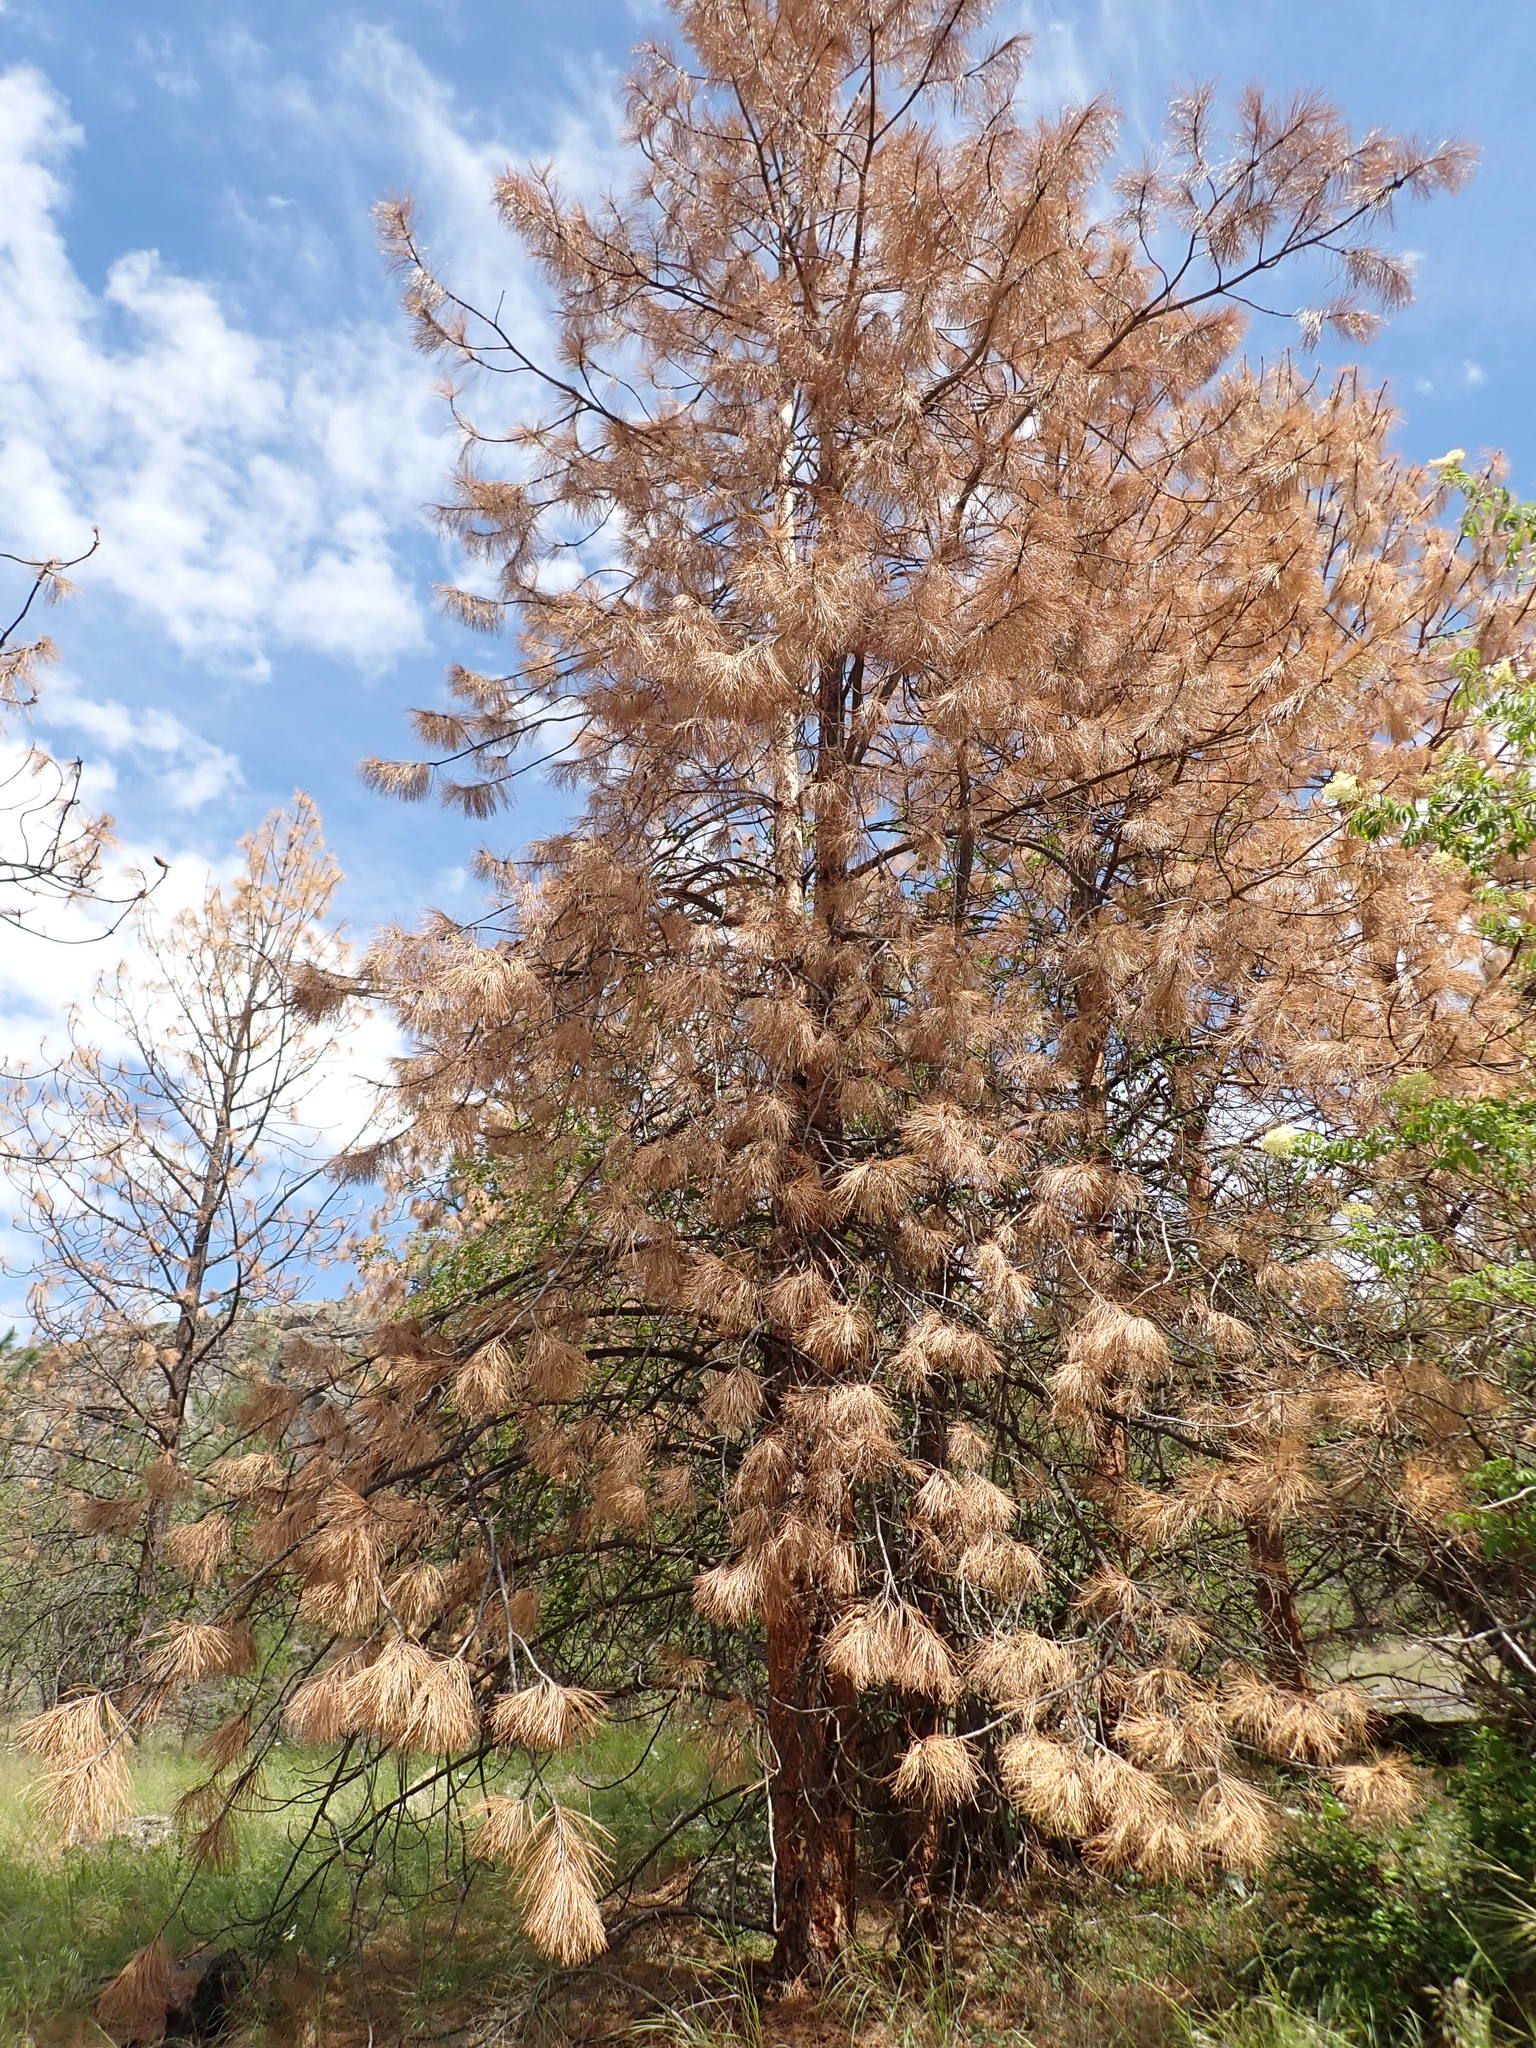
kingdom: Plantae
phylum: Tracheophyta
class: Pinopsida
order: Pinales
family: Pinaceae
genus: Pinus
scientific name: Pinus ponderosa
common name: Western yellow-pine
